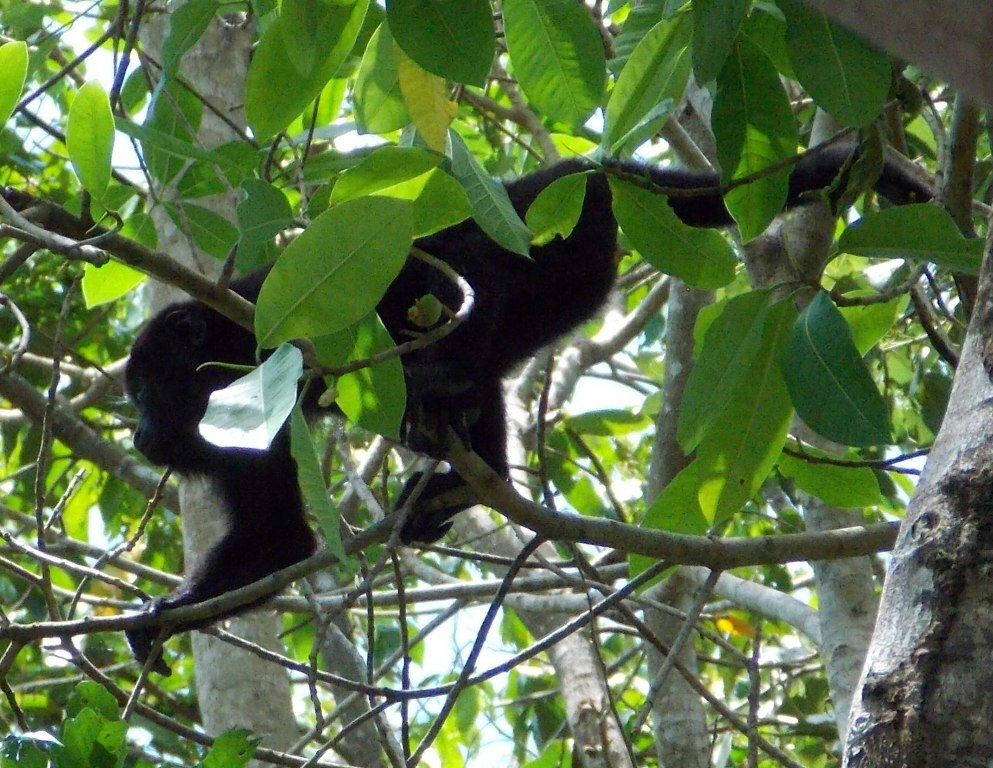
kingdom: Animalia
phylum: Chordata
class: Mammalia
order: Primates
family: Atelidae
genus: Alouatta
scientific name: Alouatta pigra
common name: Guatemalan black howler
